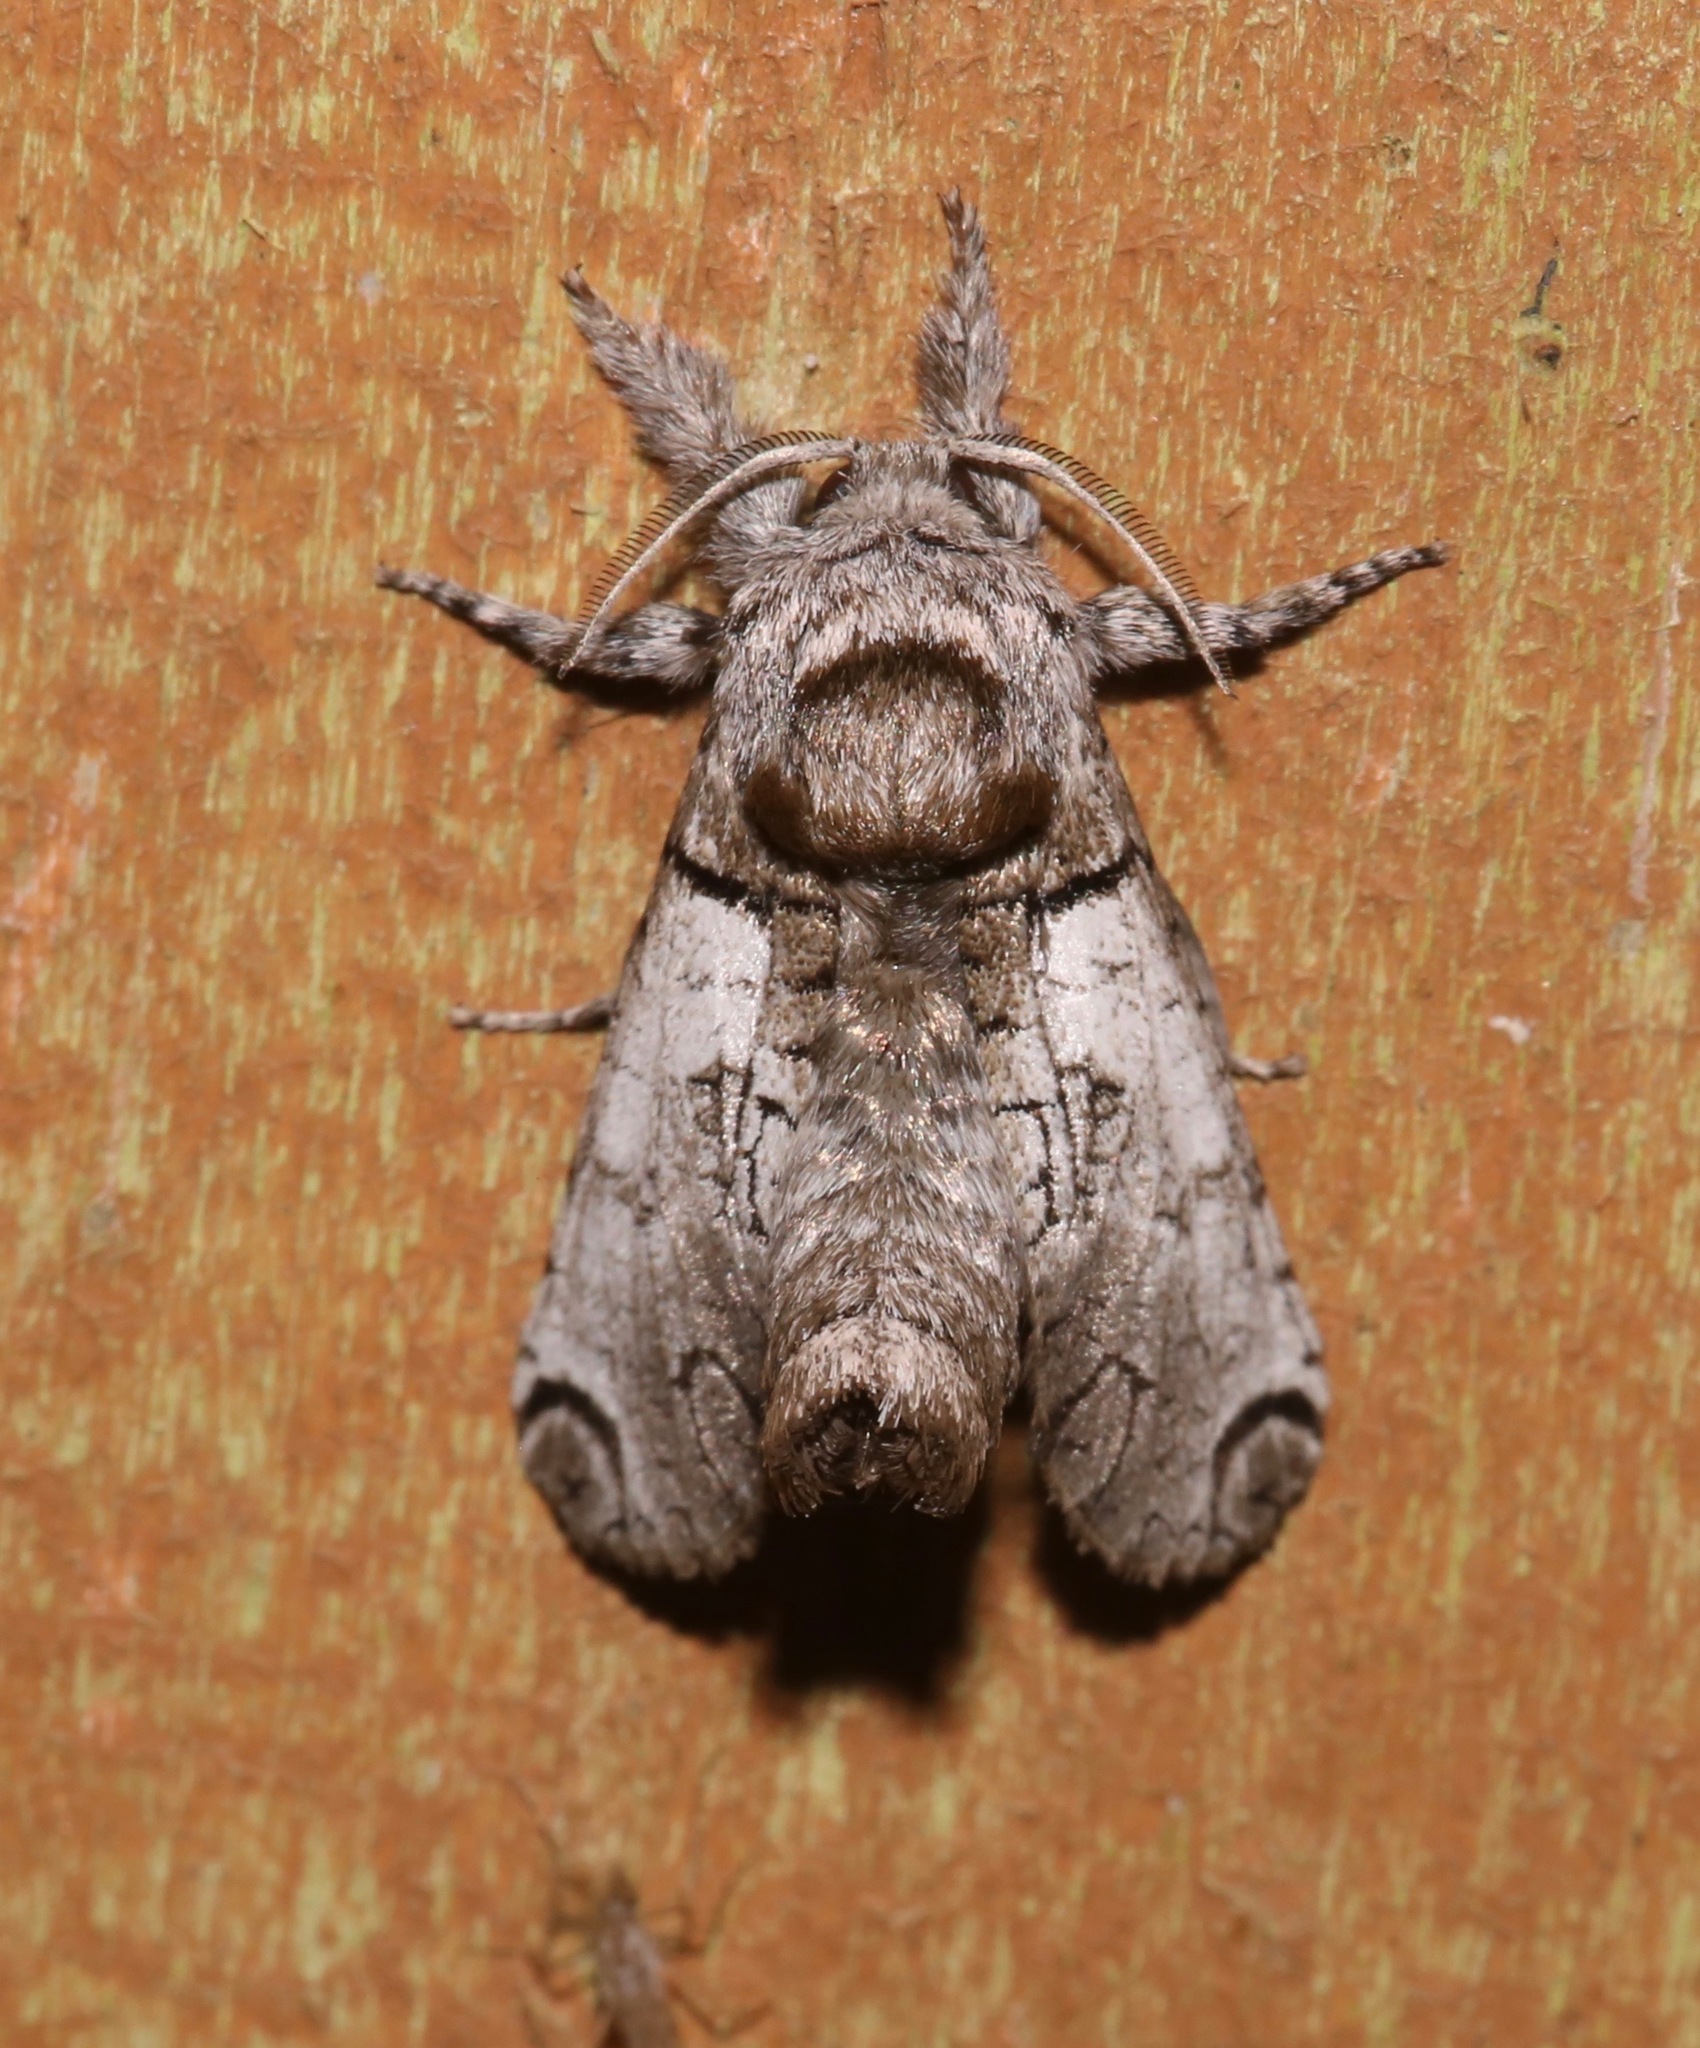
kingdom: Animalia
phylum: Arthropoda
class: Insecta
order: Lepidoptera
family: Cossidae
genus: Inguromorpha
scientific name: Inguromorpha basalis
